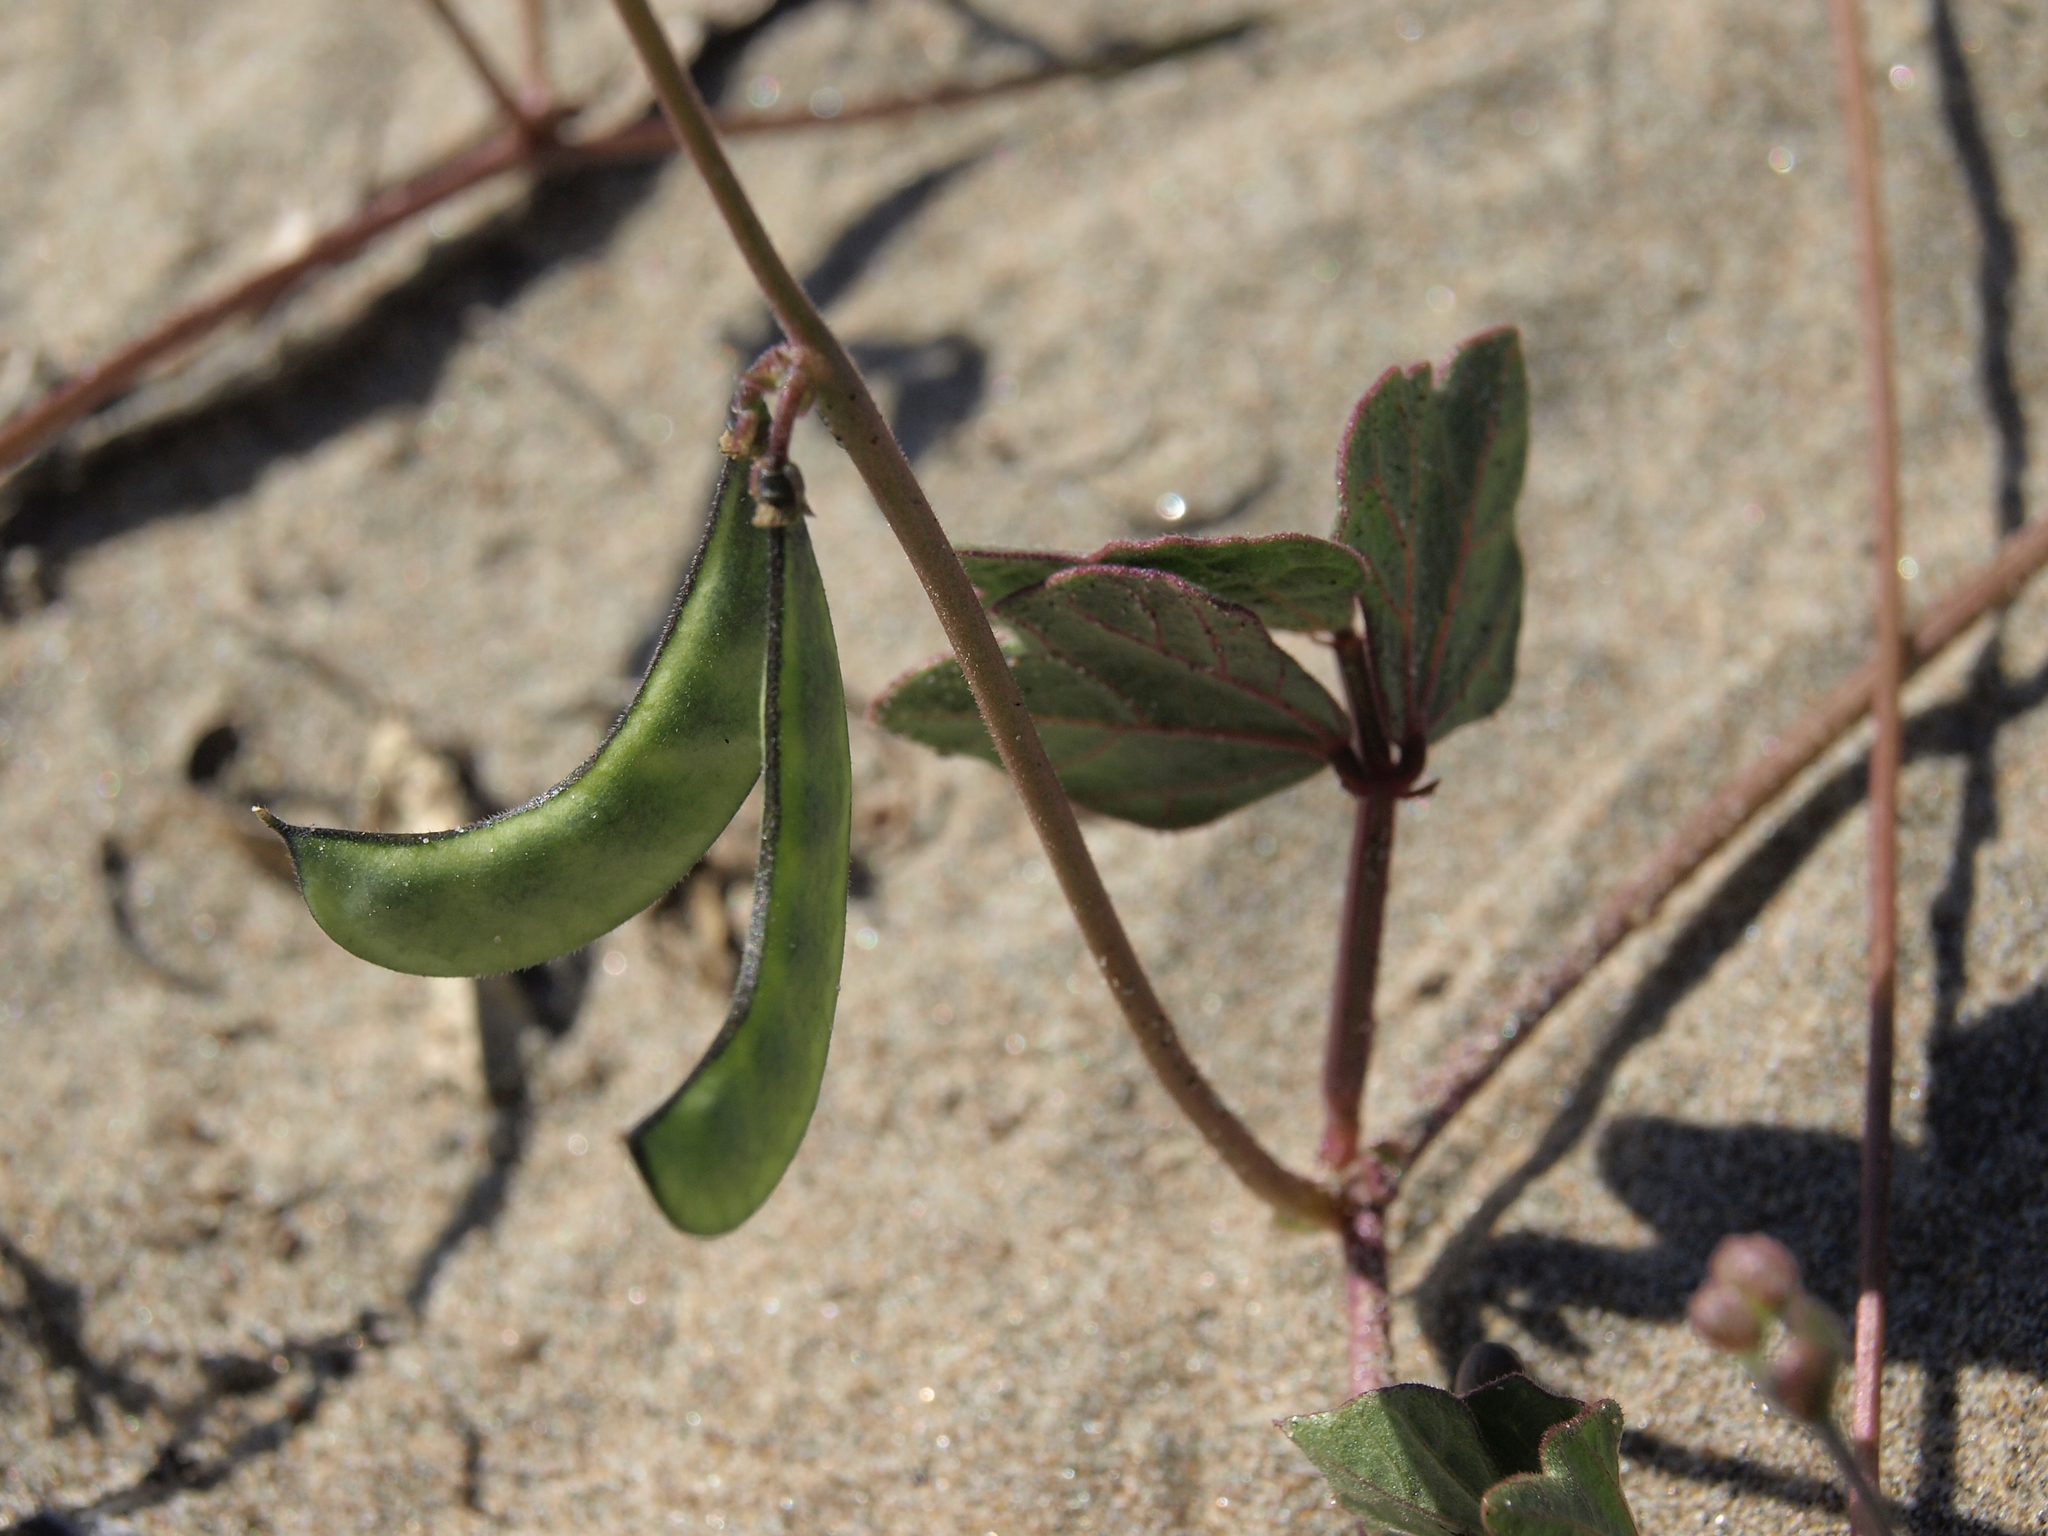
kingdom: Plantae
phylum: Tracheophyta
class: Magnoliopsida
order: Fabales
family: Fabaceae
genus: Phaseolus
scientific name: Phaseolus filiformis
